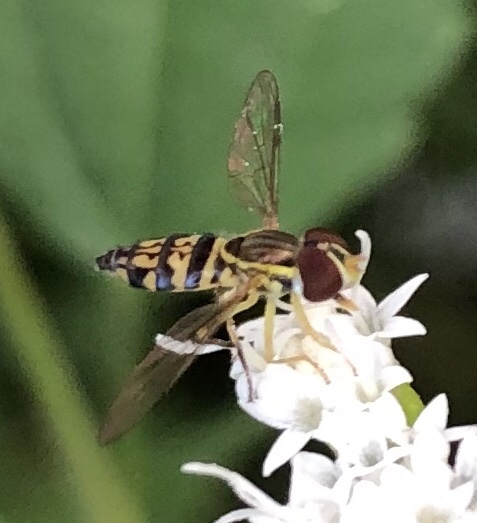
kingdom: Animalia
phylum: Arthropoda
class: Insecta
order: Diptera
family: Syrphidae
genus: Toxomerus
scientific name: Toxomerus geminatus
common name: Eastern calligrapher
